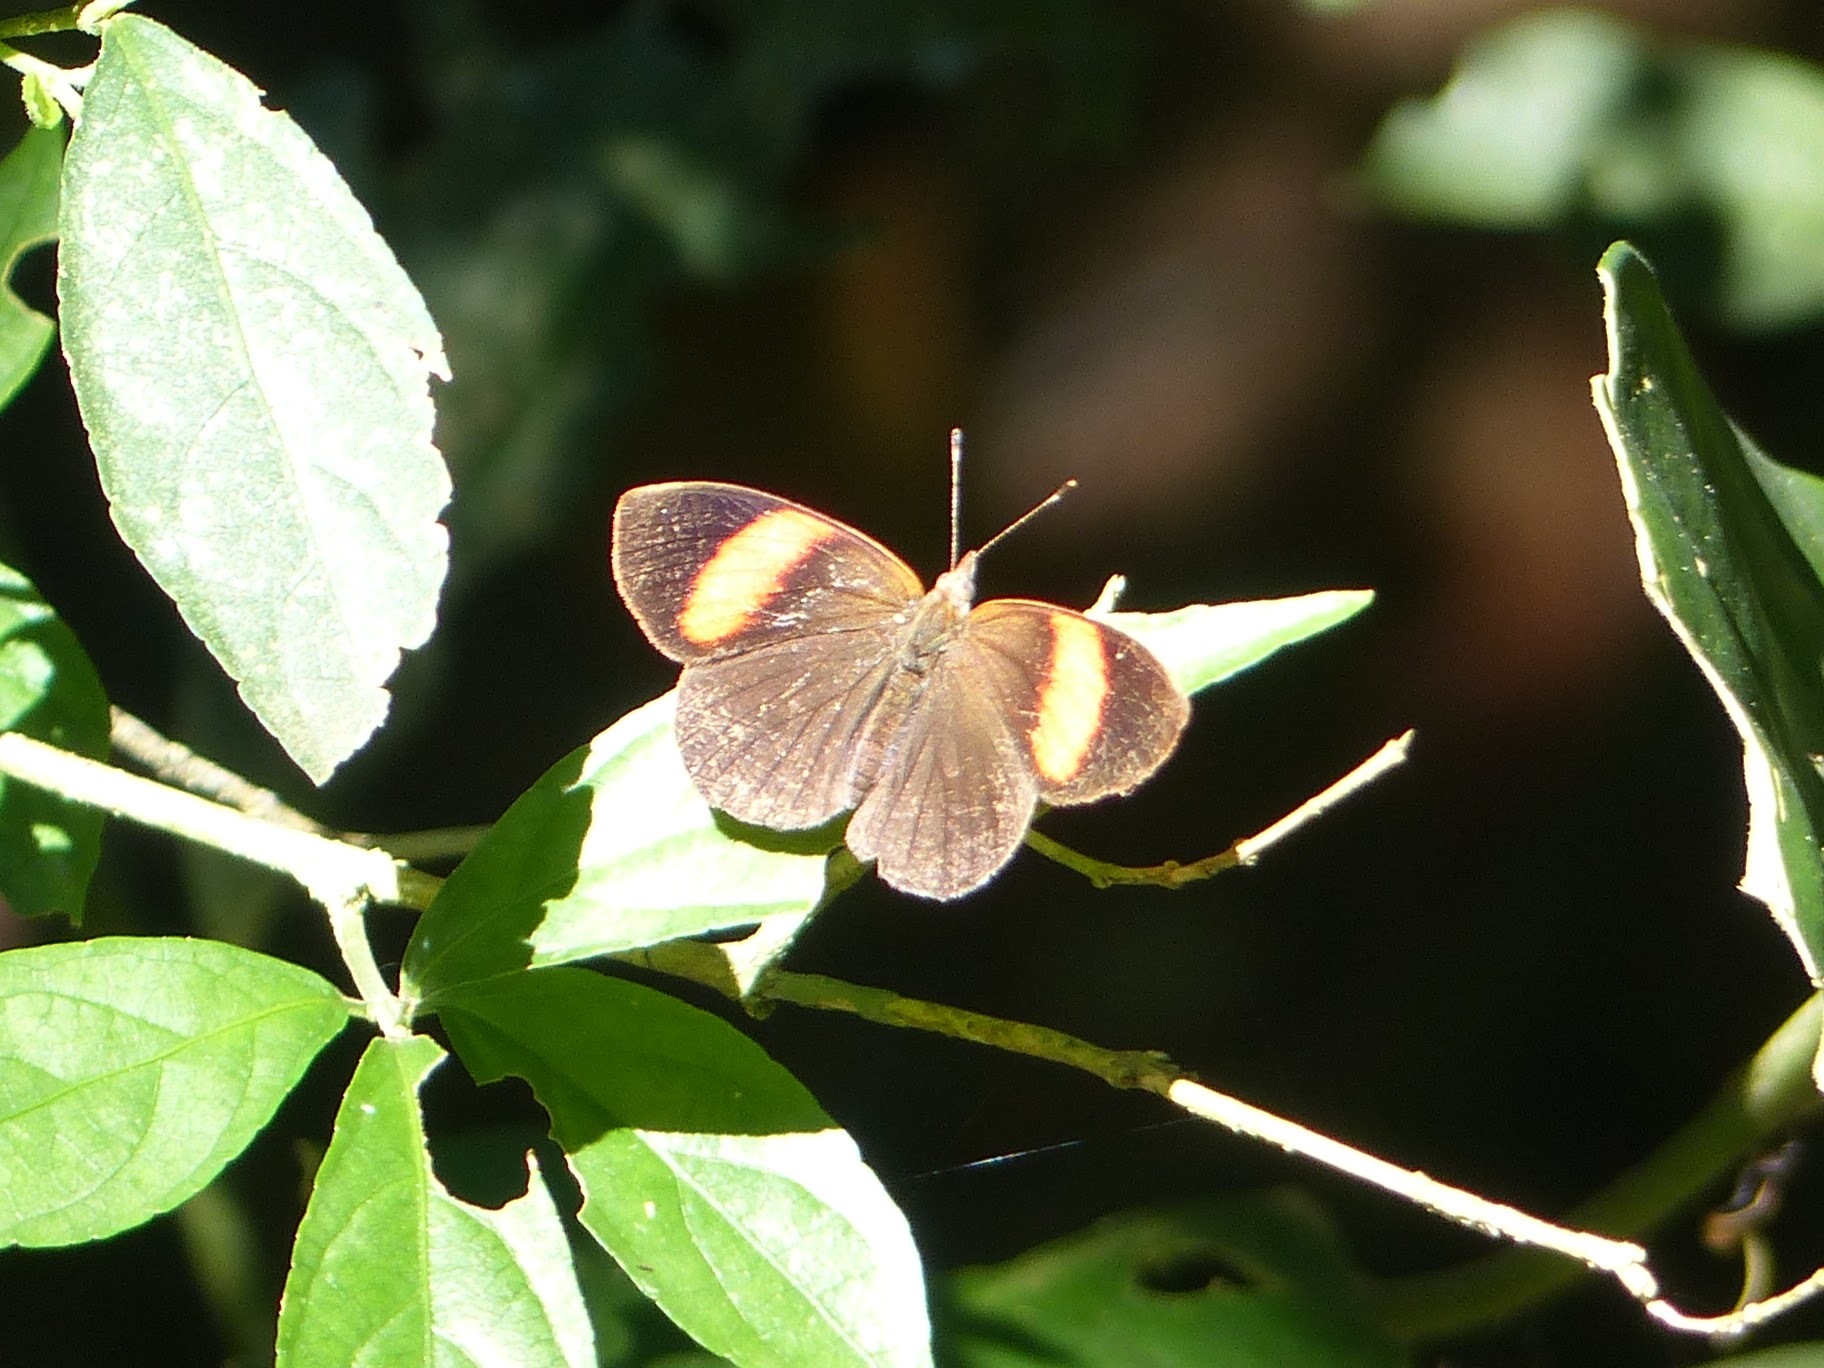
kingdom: Animalia
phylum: Arthropoda
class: Insecta
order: Lepidoptera
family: Nymphalidae
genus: Haematera
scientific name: Haematera pyrame
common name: Blind eighty-eight
